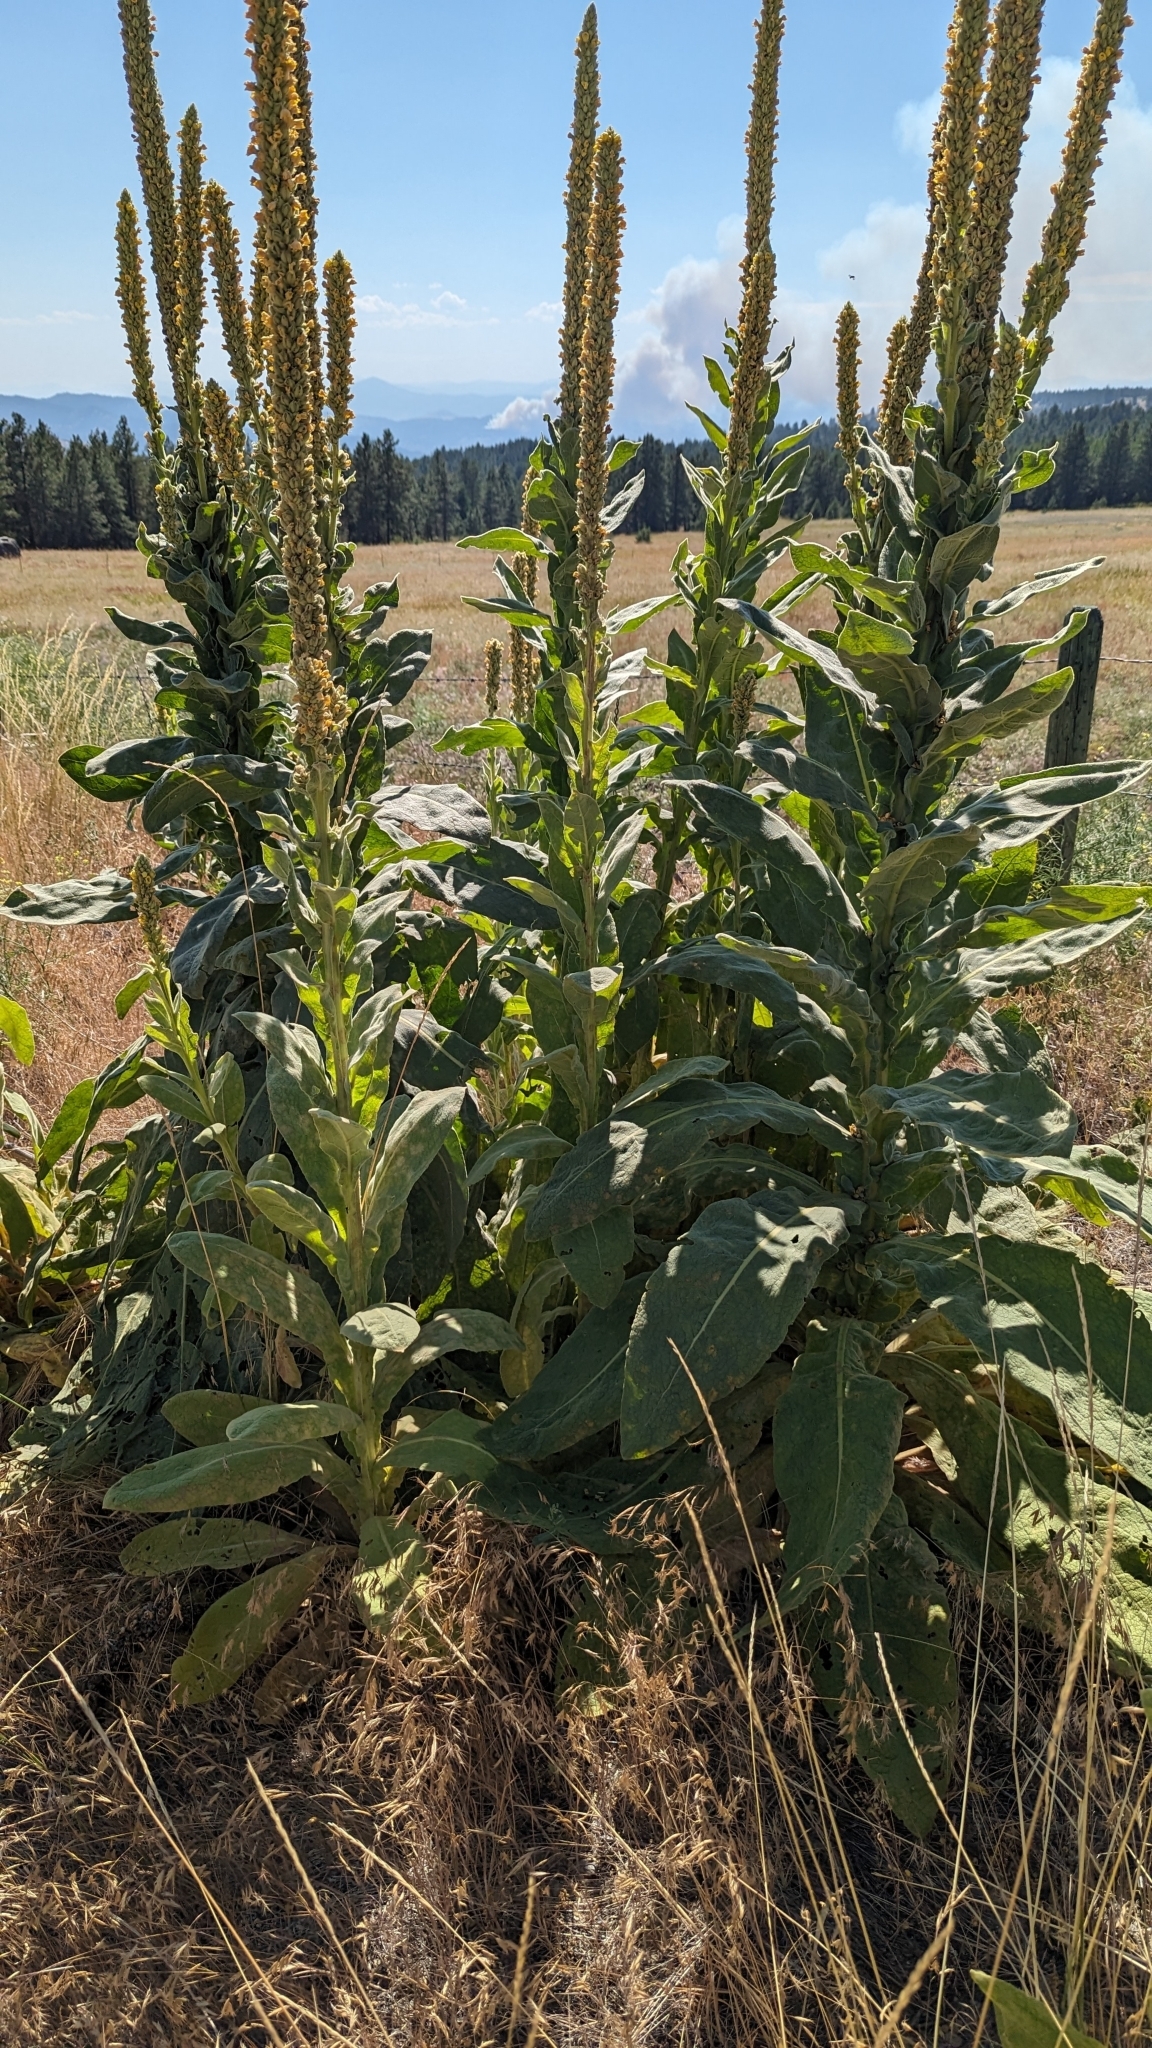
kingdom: Plantae
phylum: Tracheophyta
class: Magnoliopsida
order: Lamiales
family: Scrophulariaceae
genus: Verbascum
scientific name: Verbascum thapsus
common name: Common mullein
